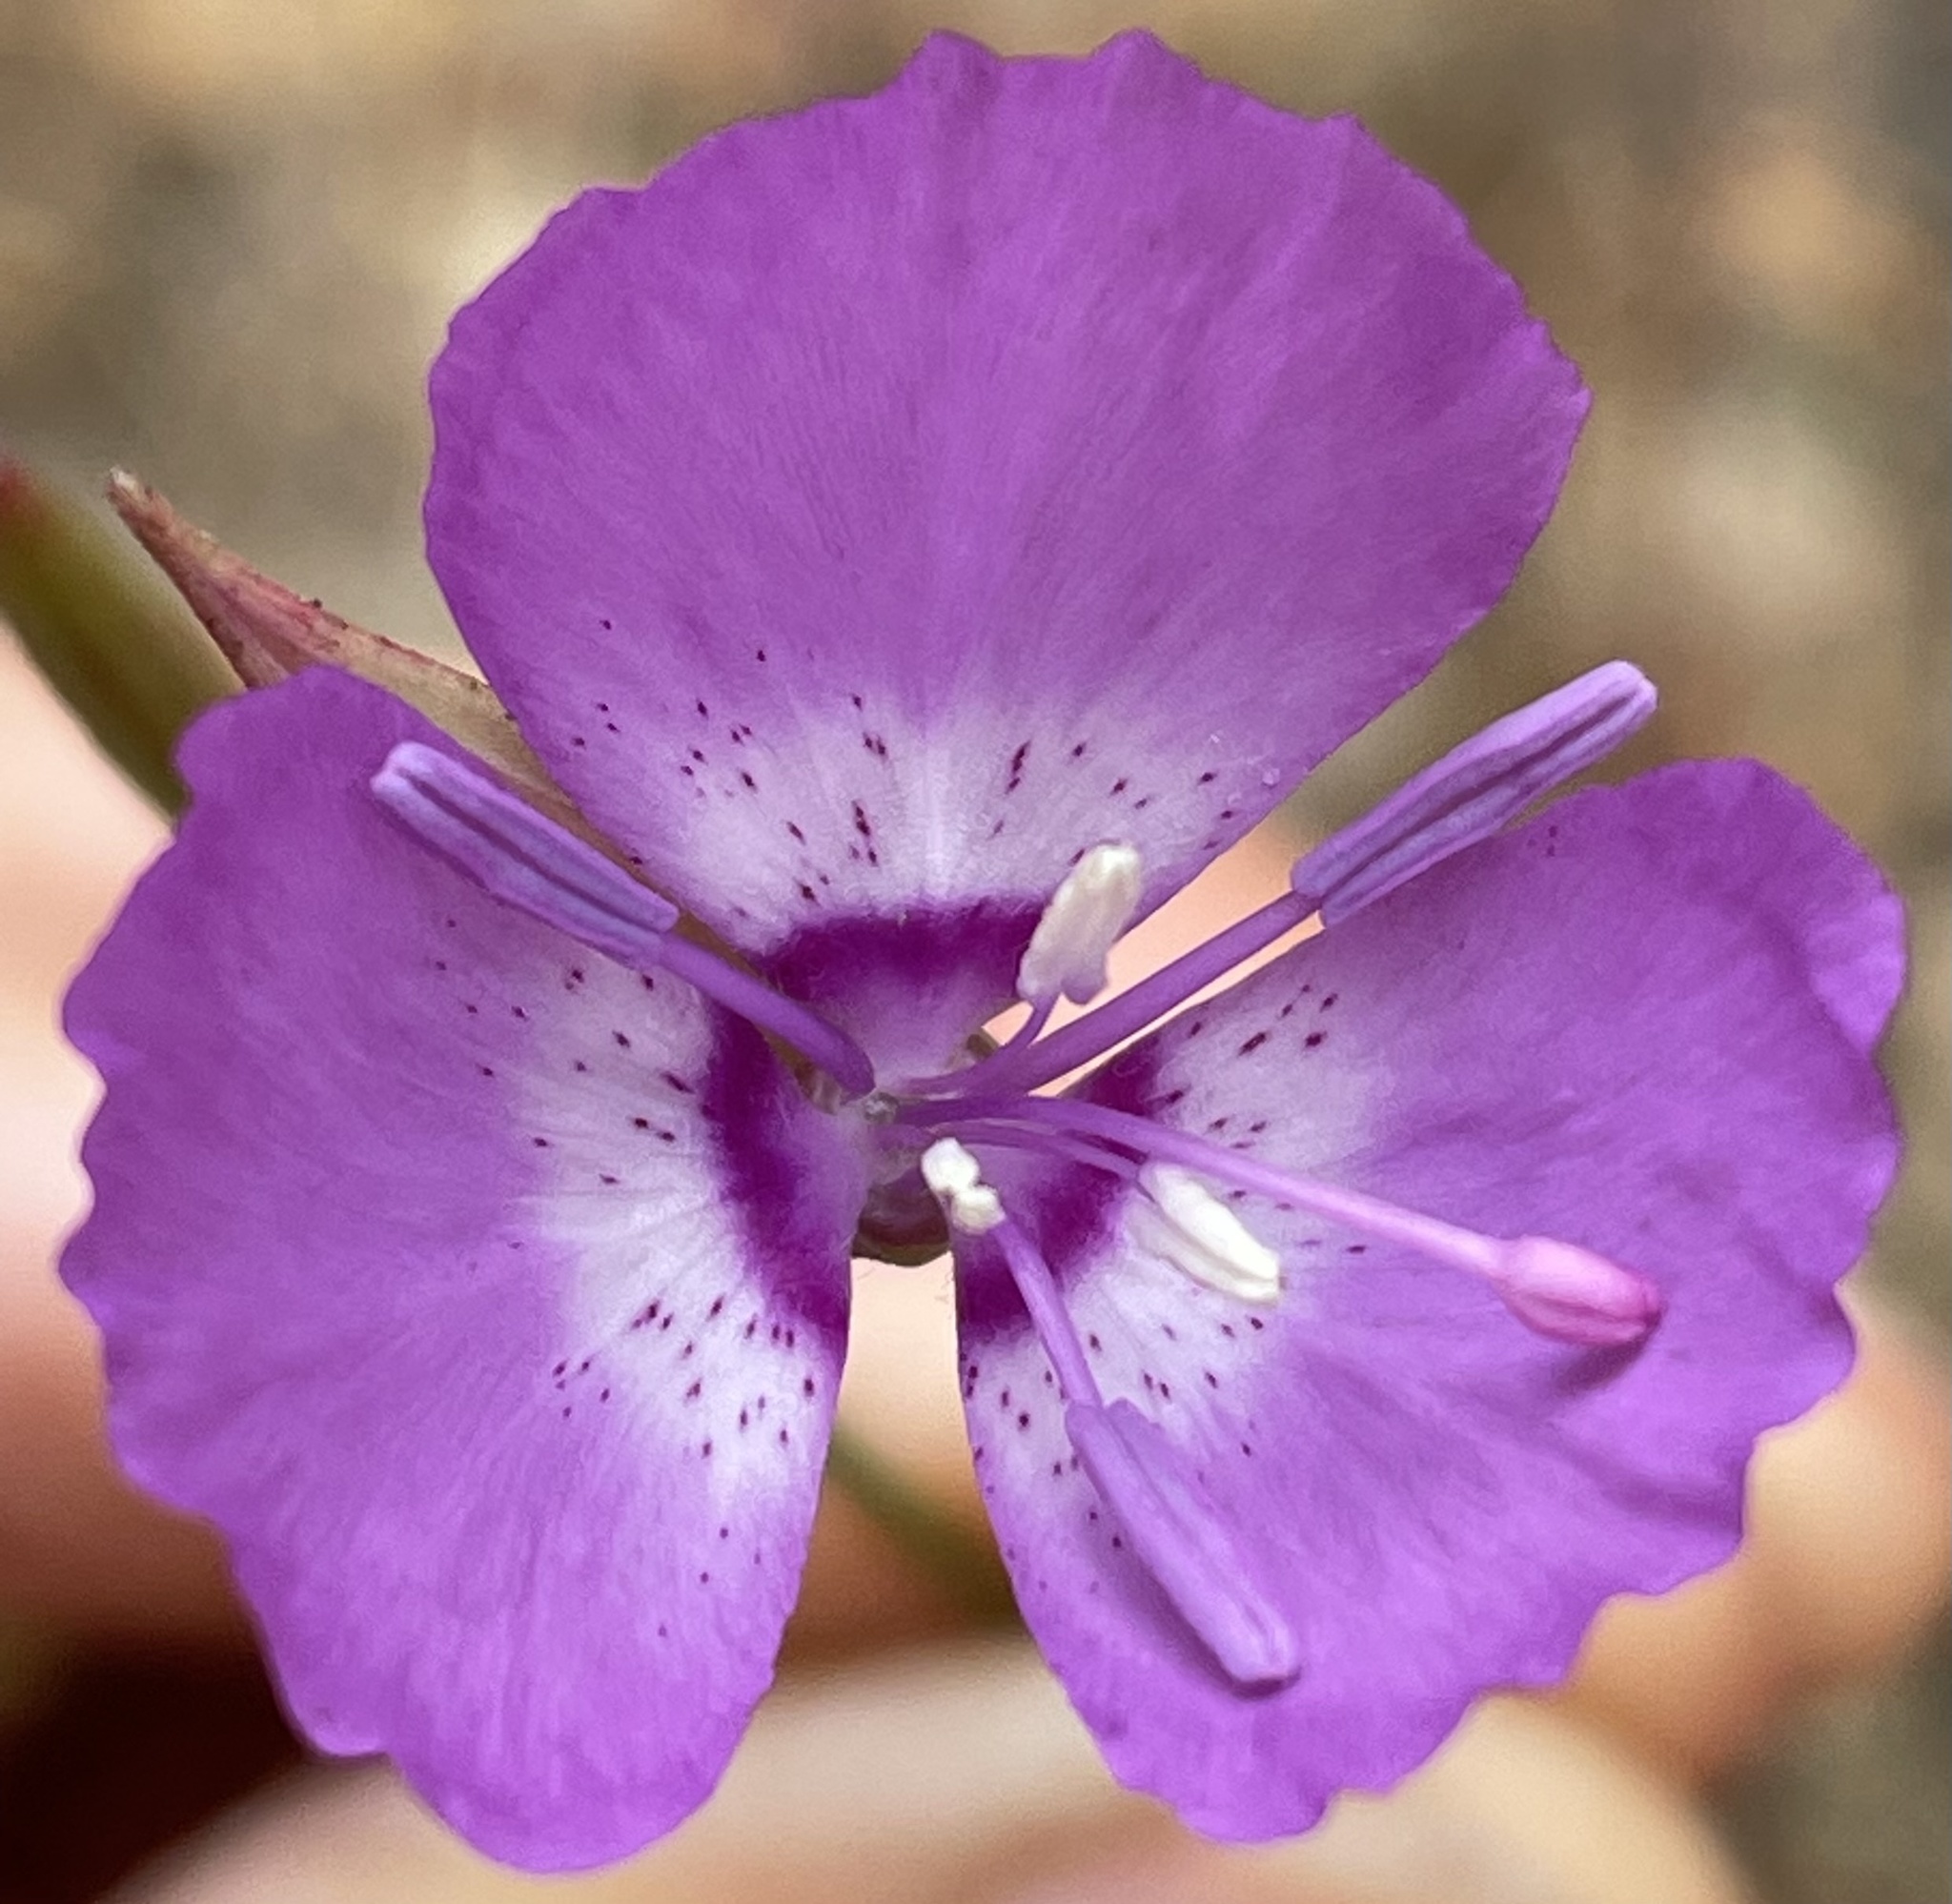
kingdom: Plantae
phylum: Tracheophyta
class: Magnoliopsida
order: Myrtales
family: Onagraceae
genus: Clarkia
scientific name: Clarkia lewisii
